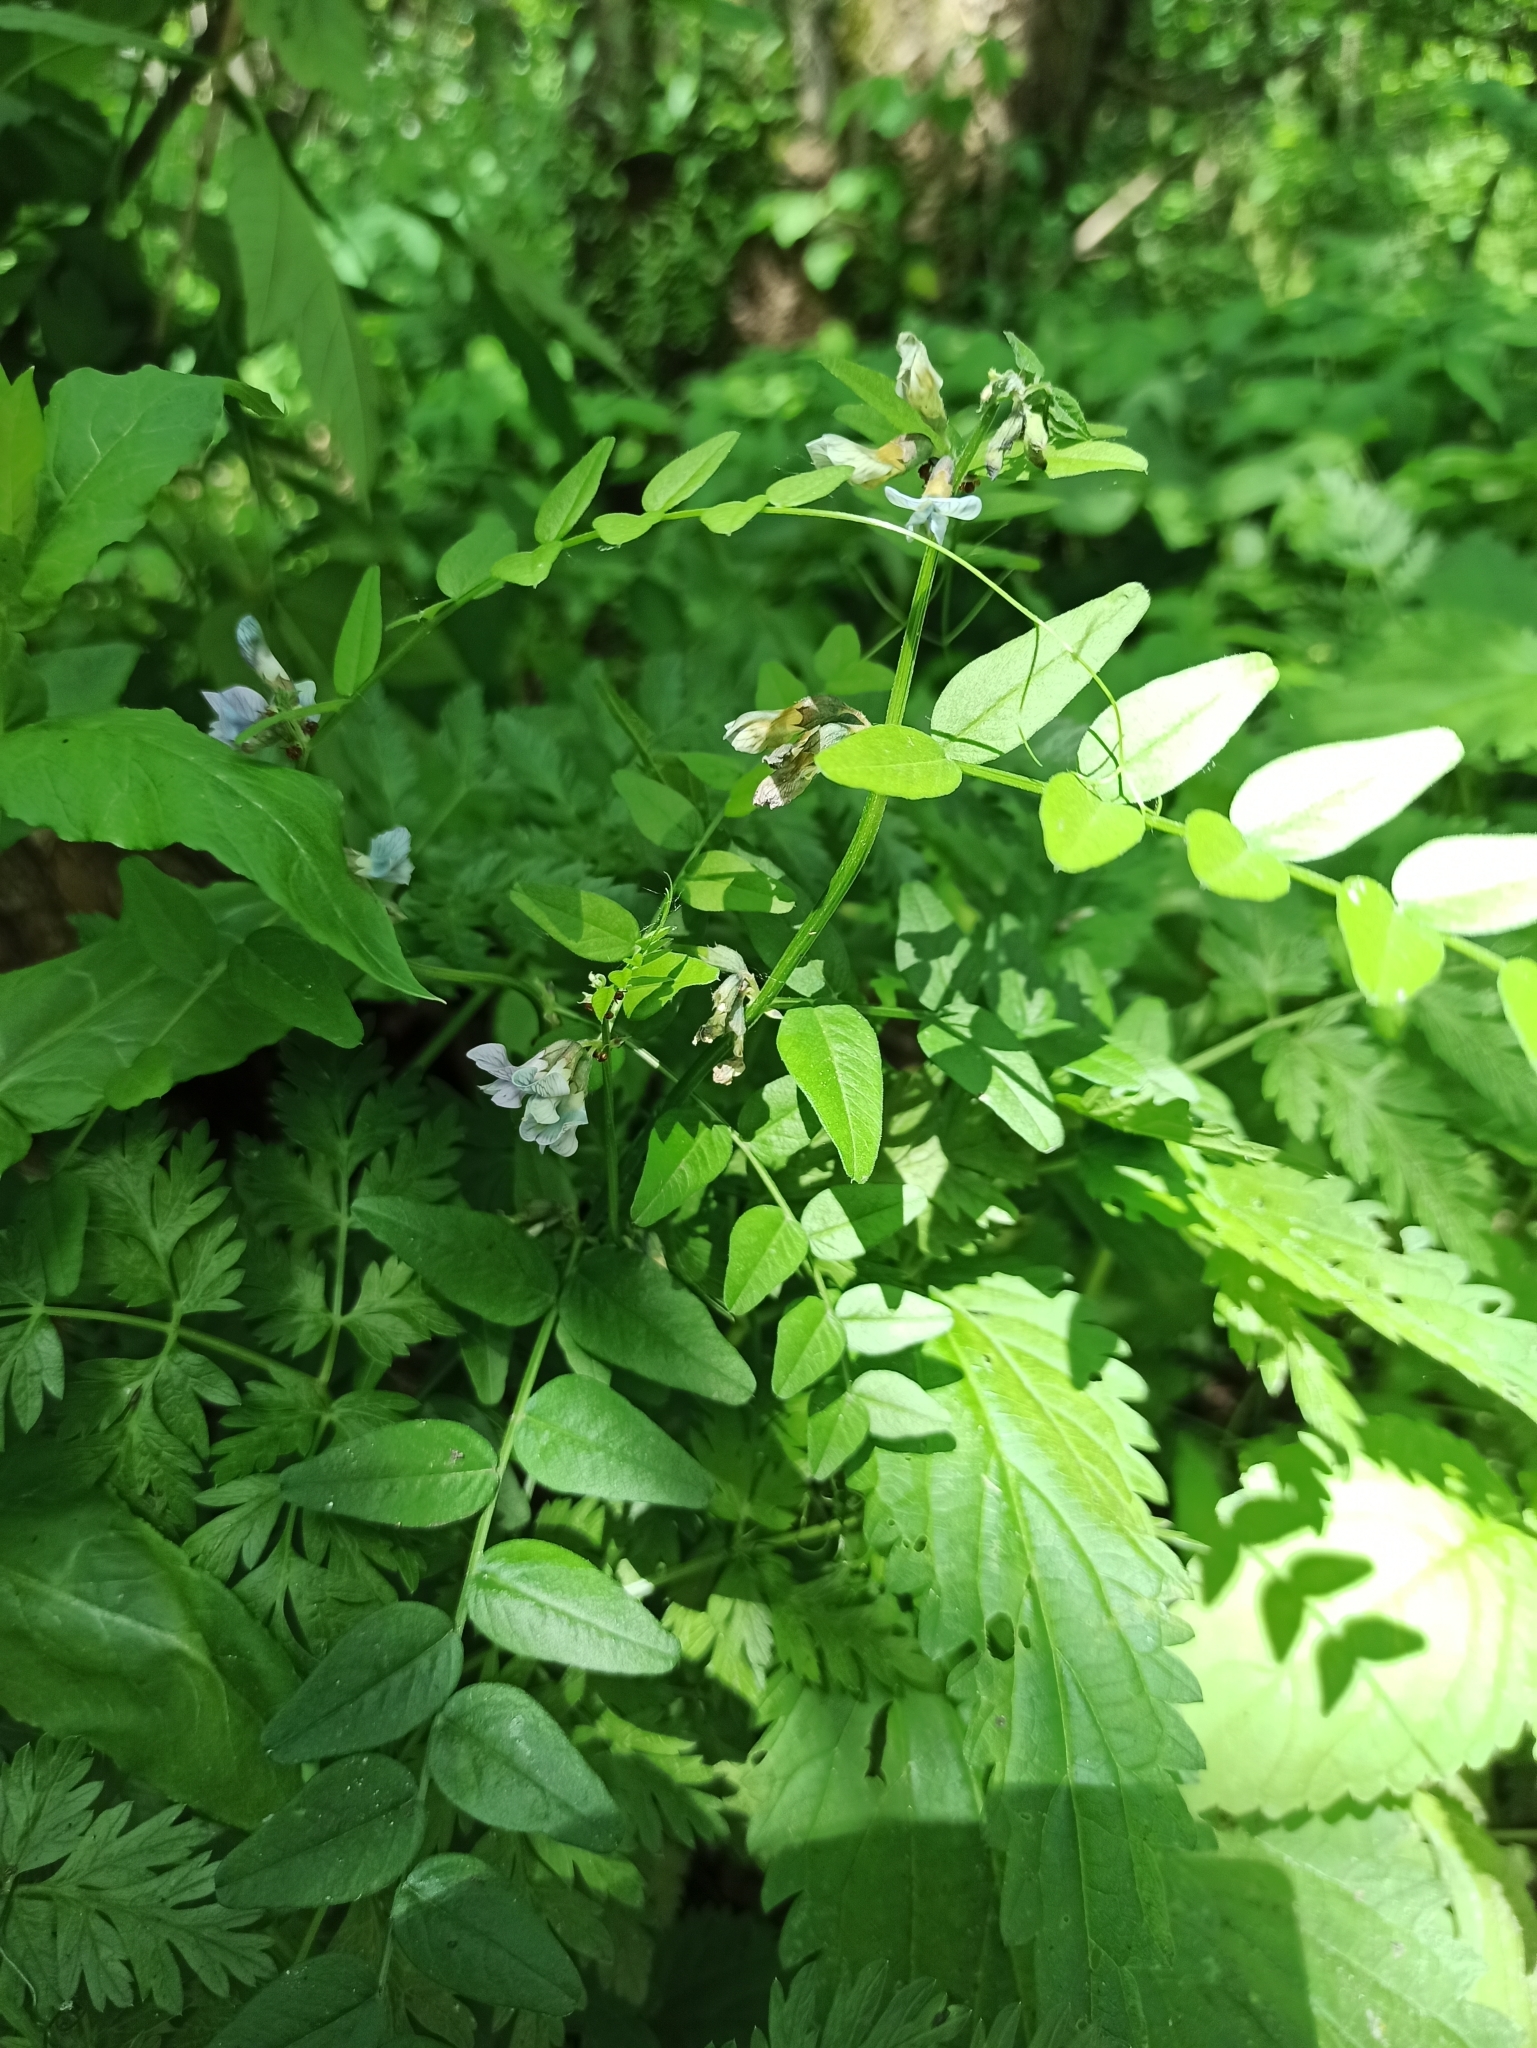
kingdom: Plantae
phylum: Tracheophyta
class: Magnoliopsida
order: Fabales
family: Fabaceae
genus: Vicia
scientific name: Vicia sepium
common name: Bush vetch
